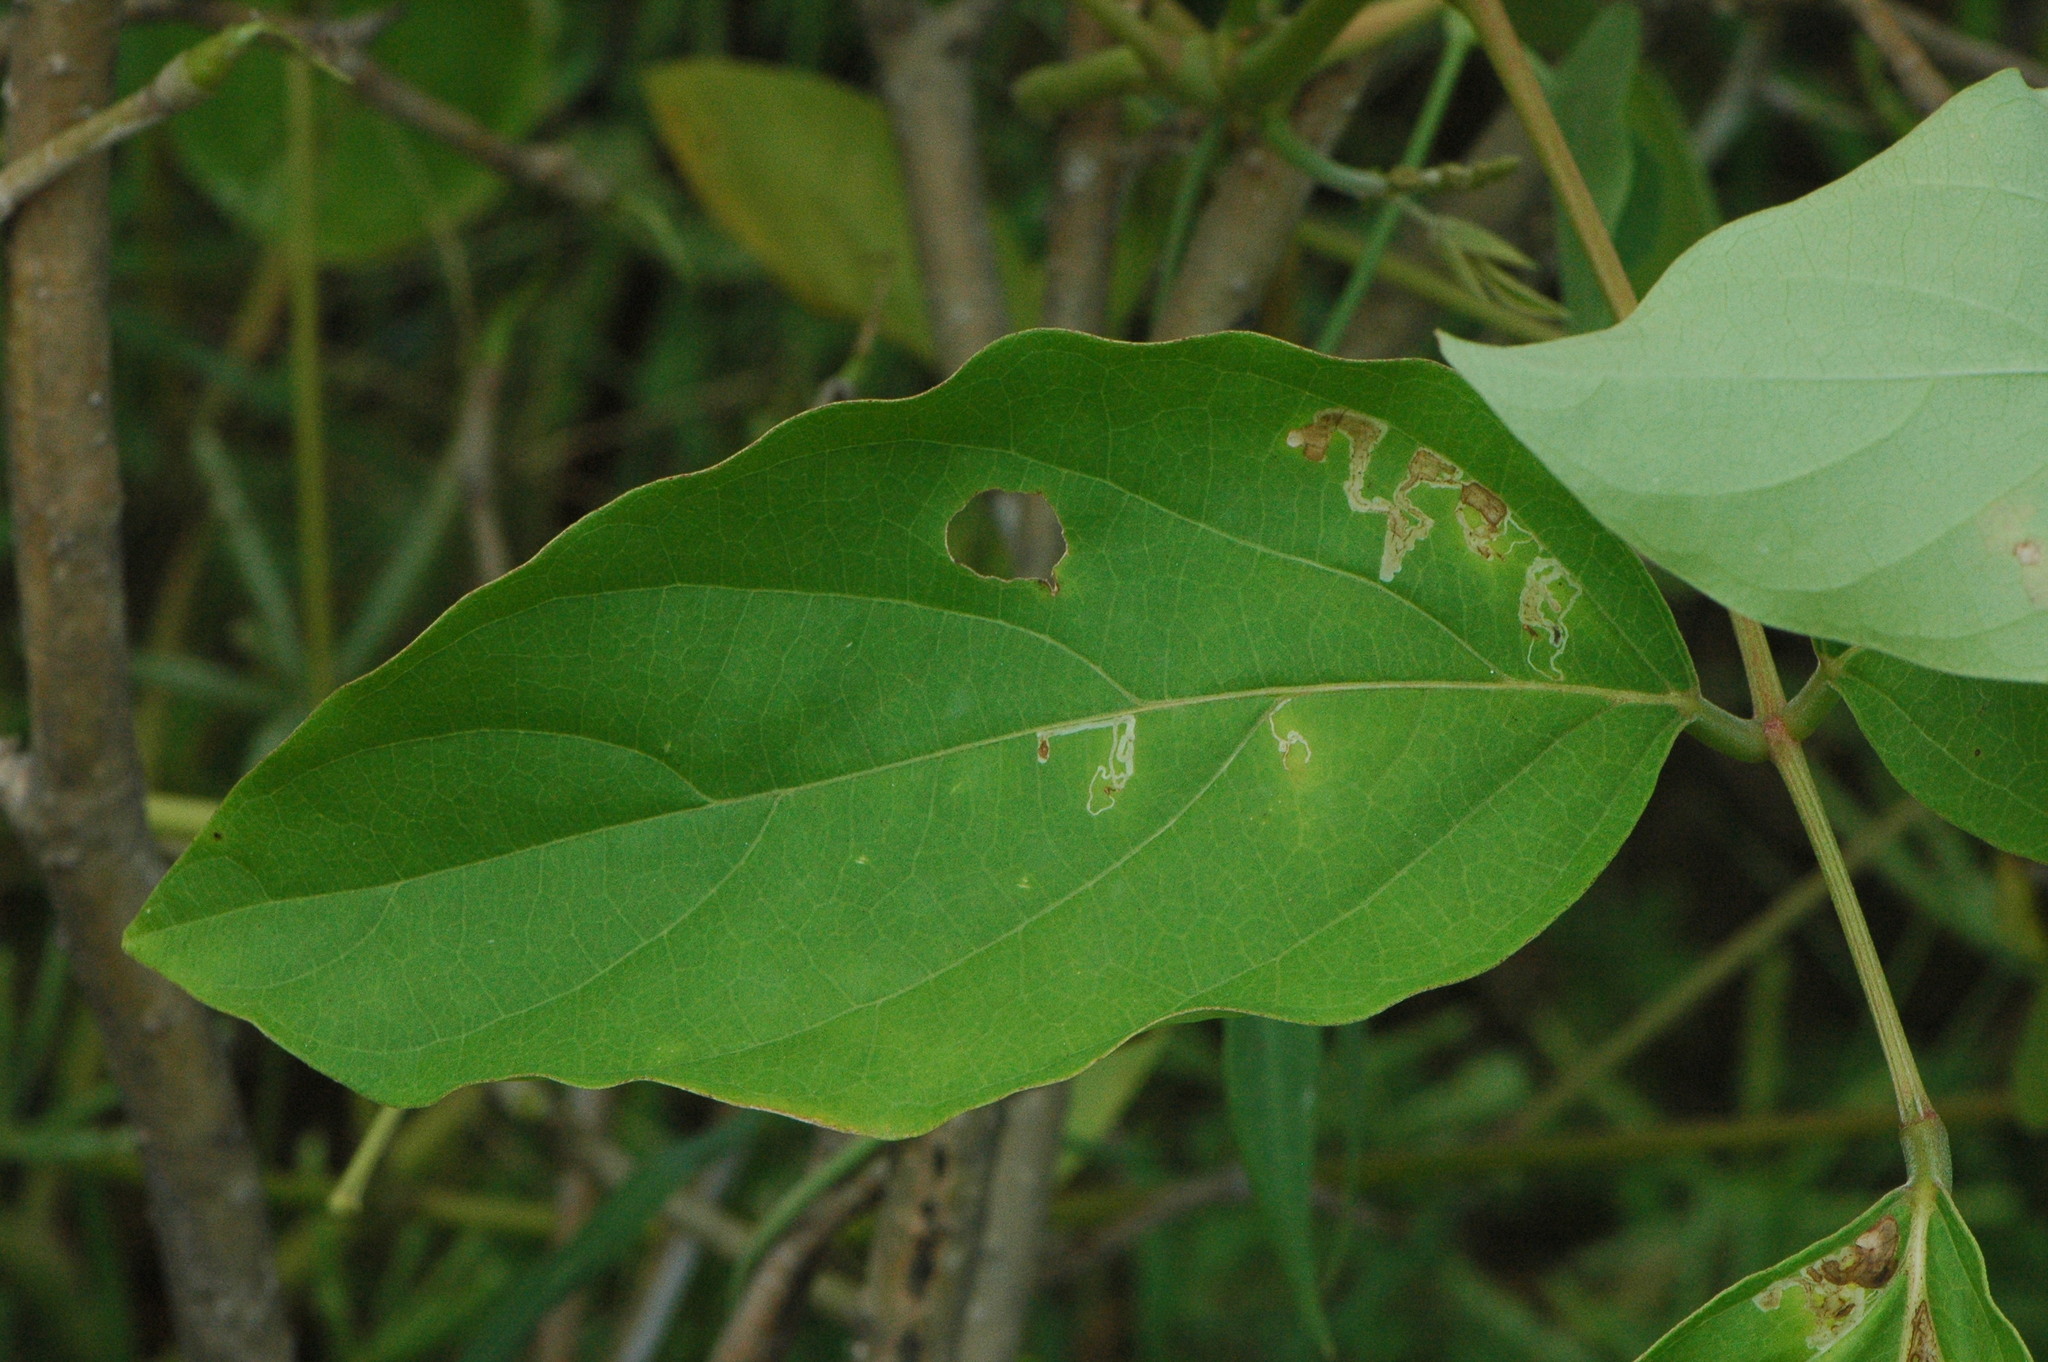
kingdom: Plantae
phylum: Tracheophyta
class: Magnoliopsida
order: Fabales
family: Fabaceae
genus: Canavalia
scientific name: Canavalia gladiata
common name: Scimitar-bean
